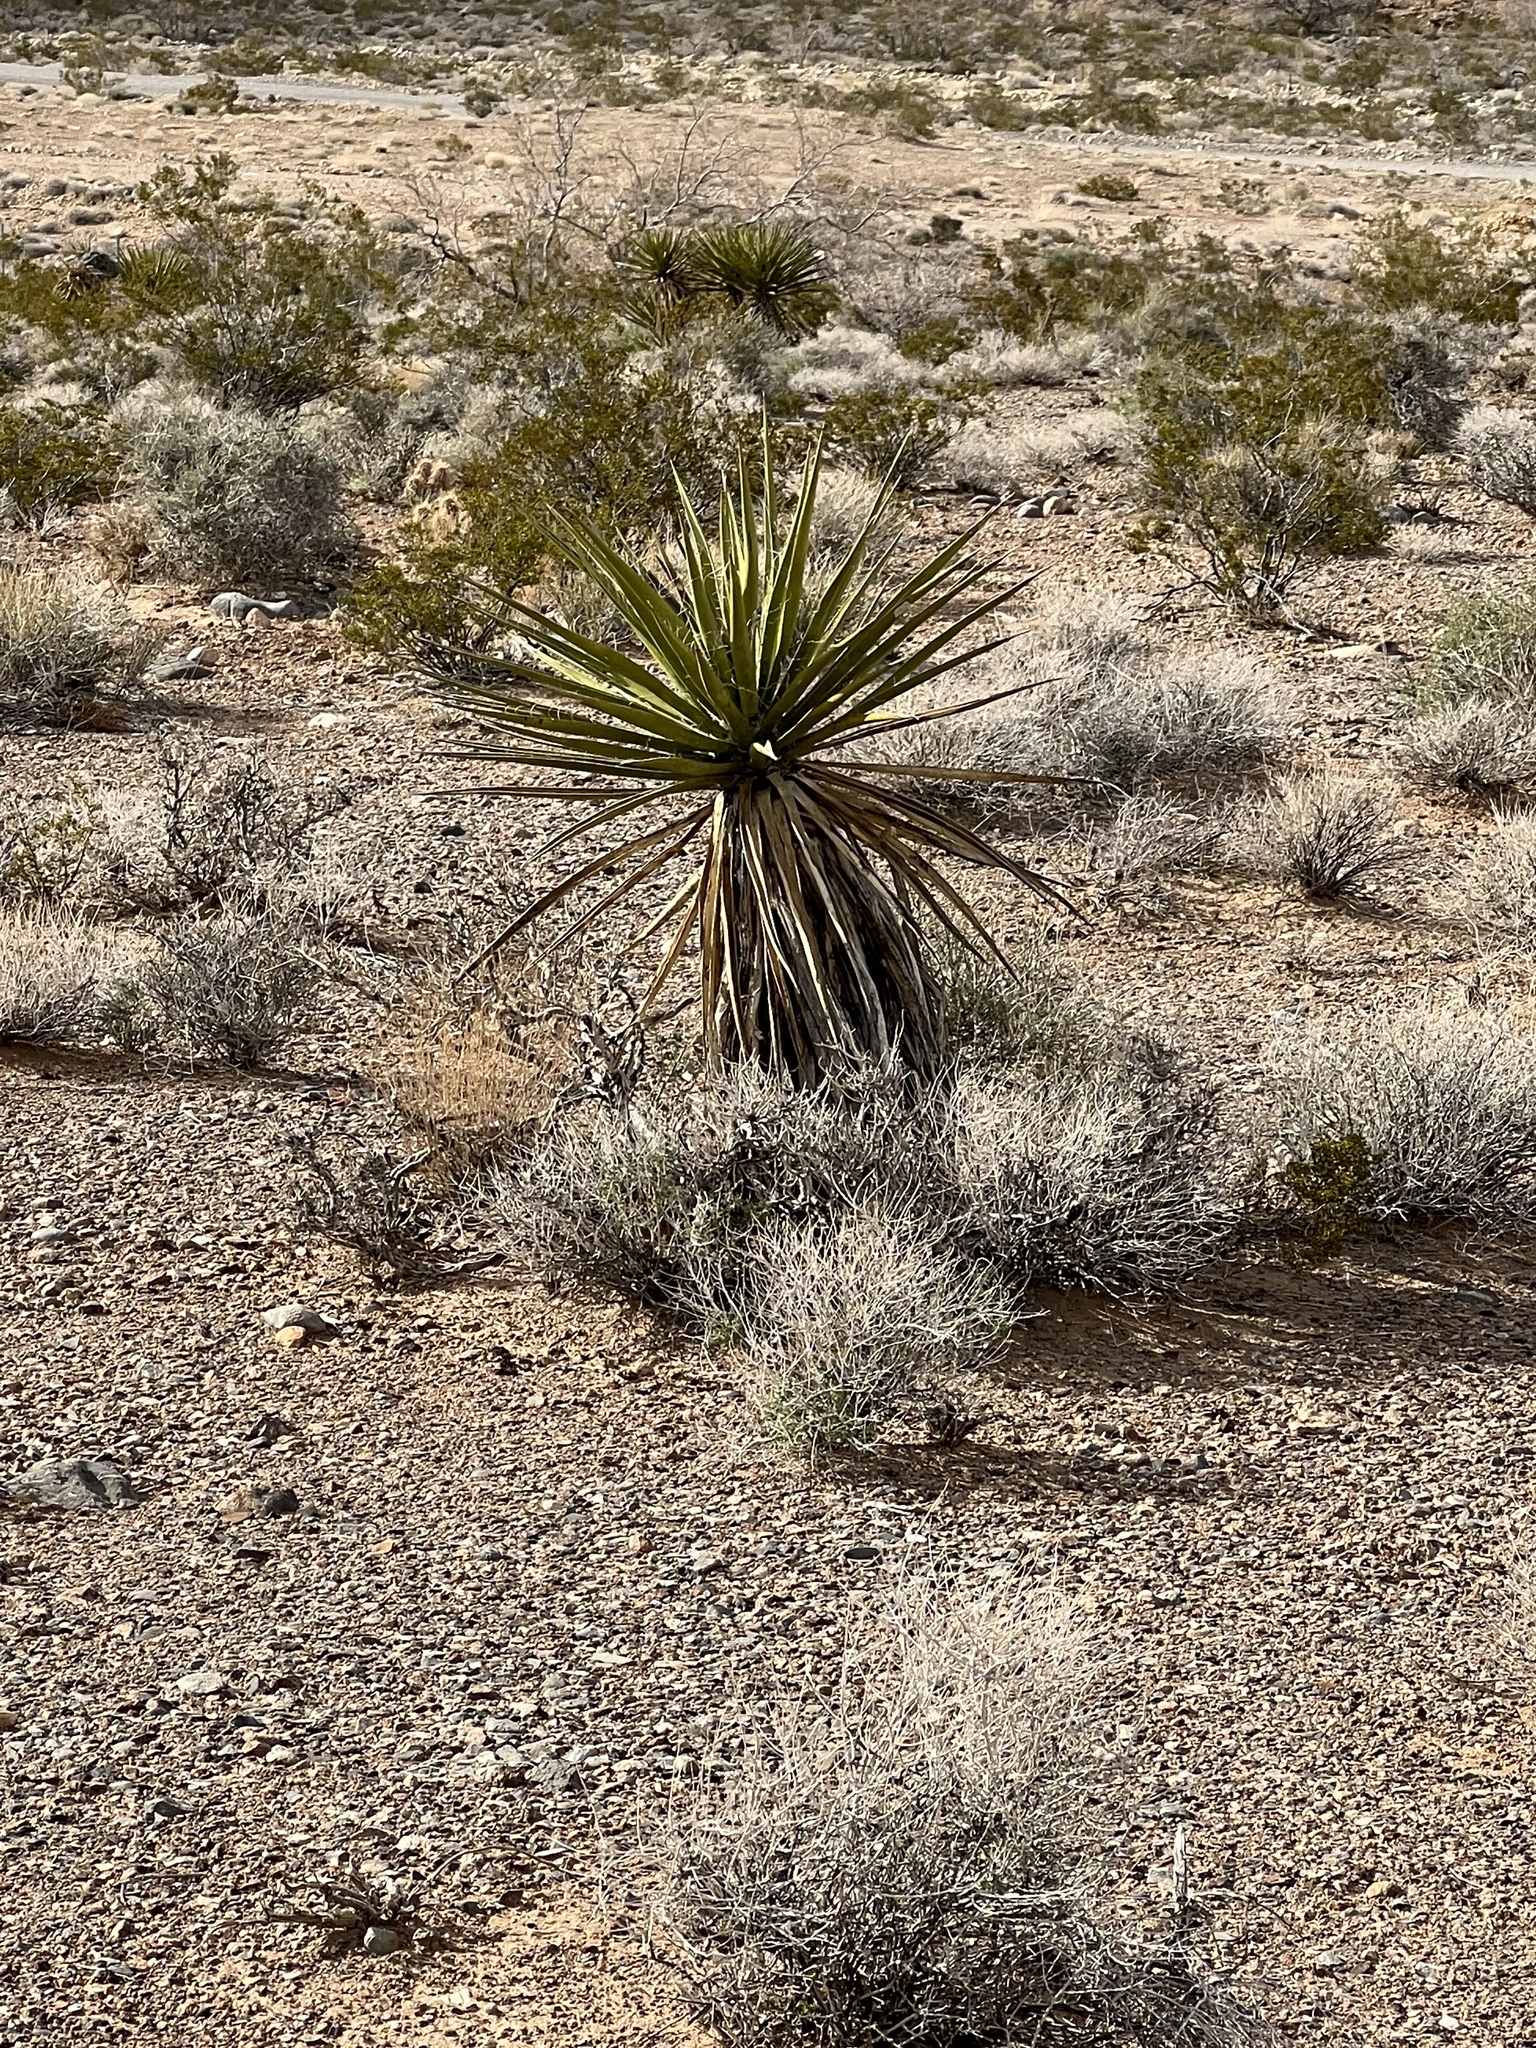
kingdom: Plantae
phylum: Tracheophyta
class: Liliopsida
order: Asparagales
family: Asparagaceae
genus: Yucca
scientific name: Yucca schidigera
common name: Mojave yucca
